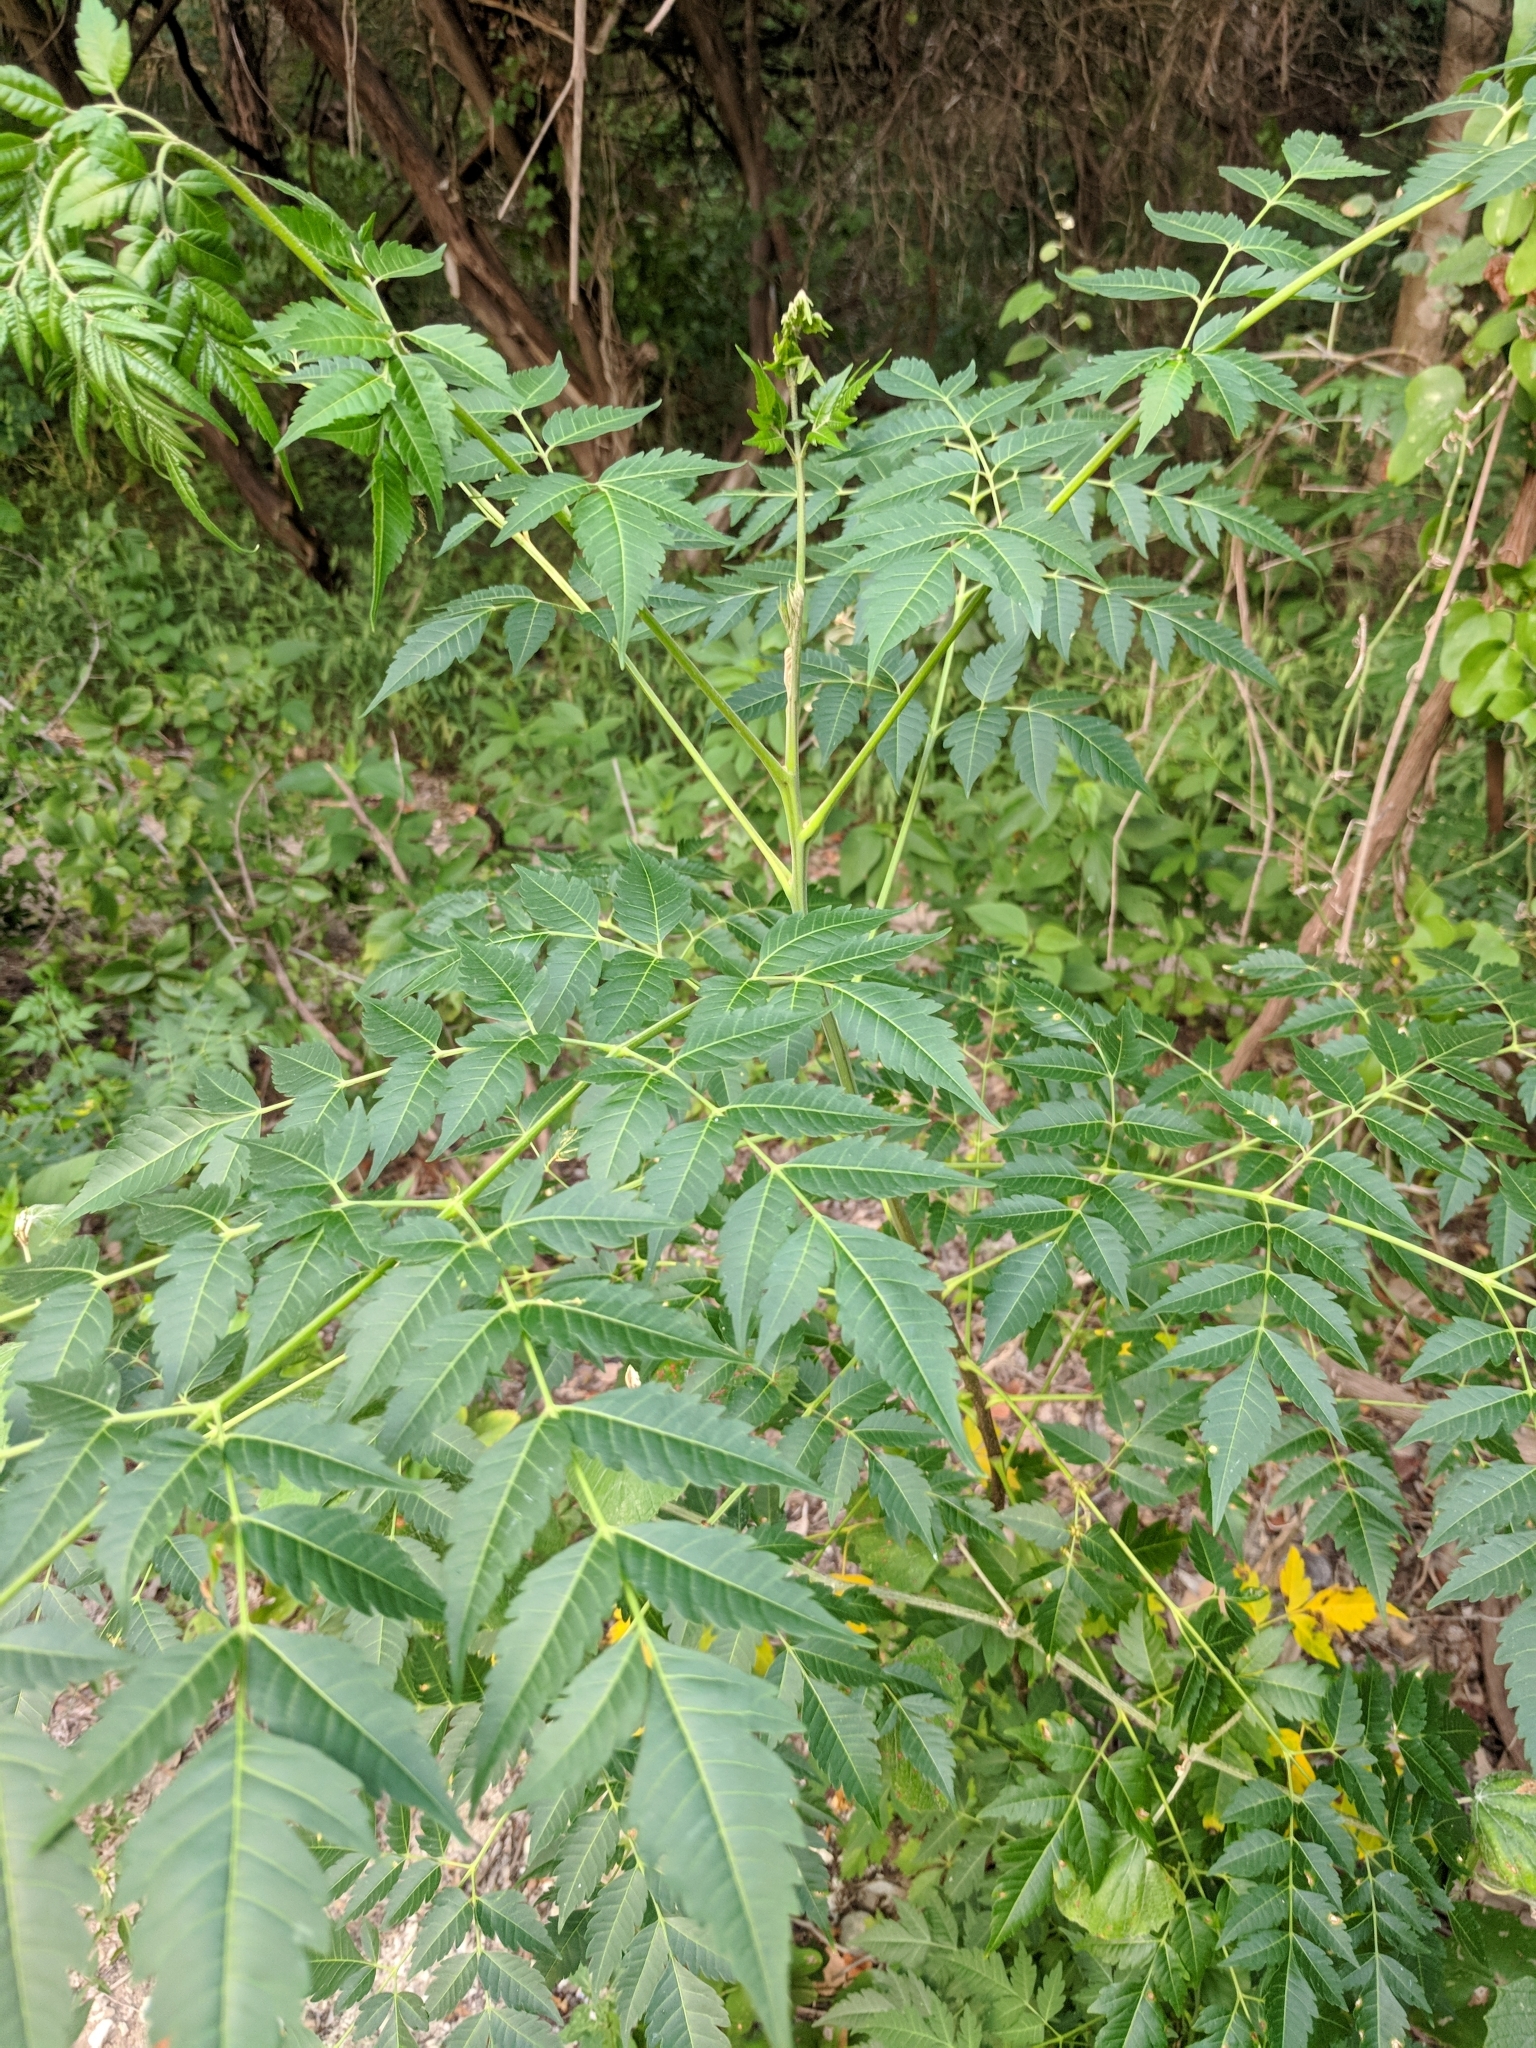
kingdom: Plantae
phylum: Tracheophyta
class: Magnoliopsida
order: Sapindales
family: Meliaceae
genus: Melia
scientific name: Melia azedarach
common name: Chinaberrytree
